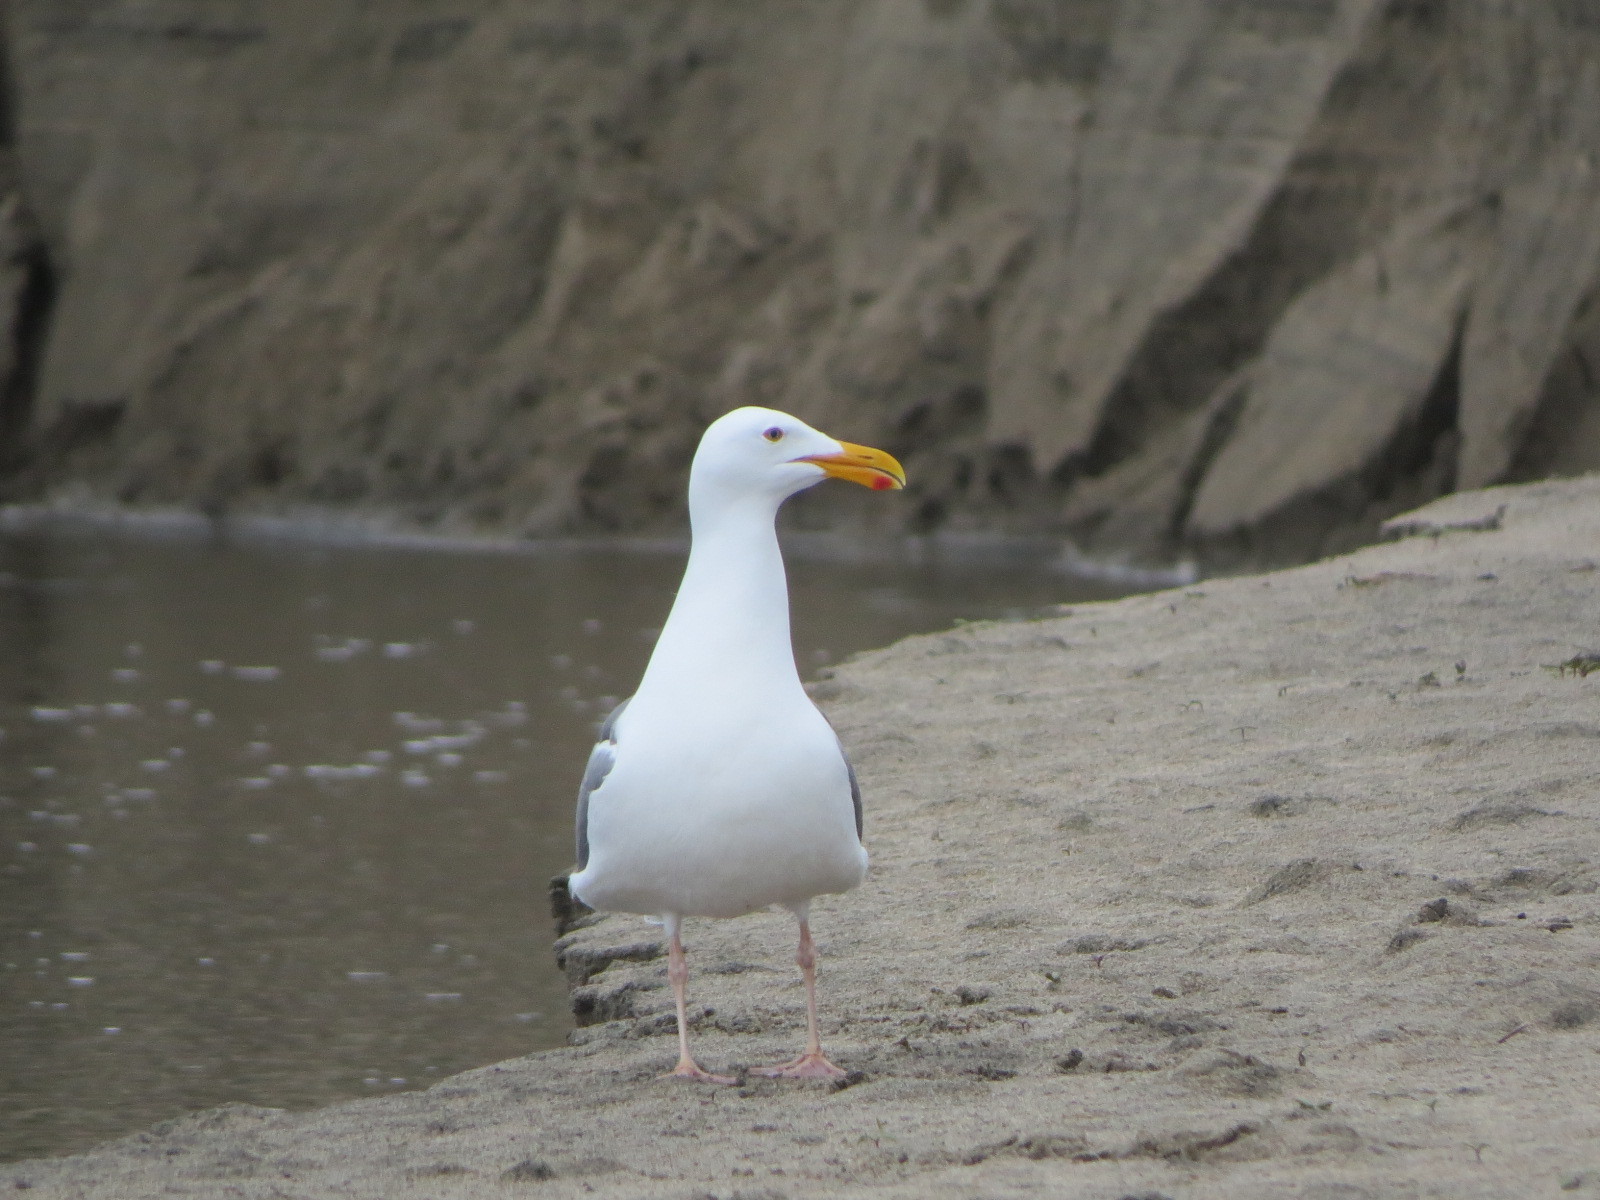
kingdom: Animalia
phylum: Chordata
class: Aves
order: Charadriiformes
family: Laridae
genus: Larus
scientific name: Larus occidentalis
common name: Western gull
